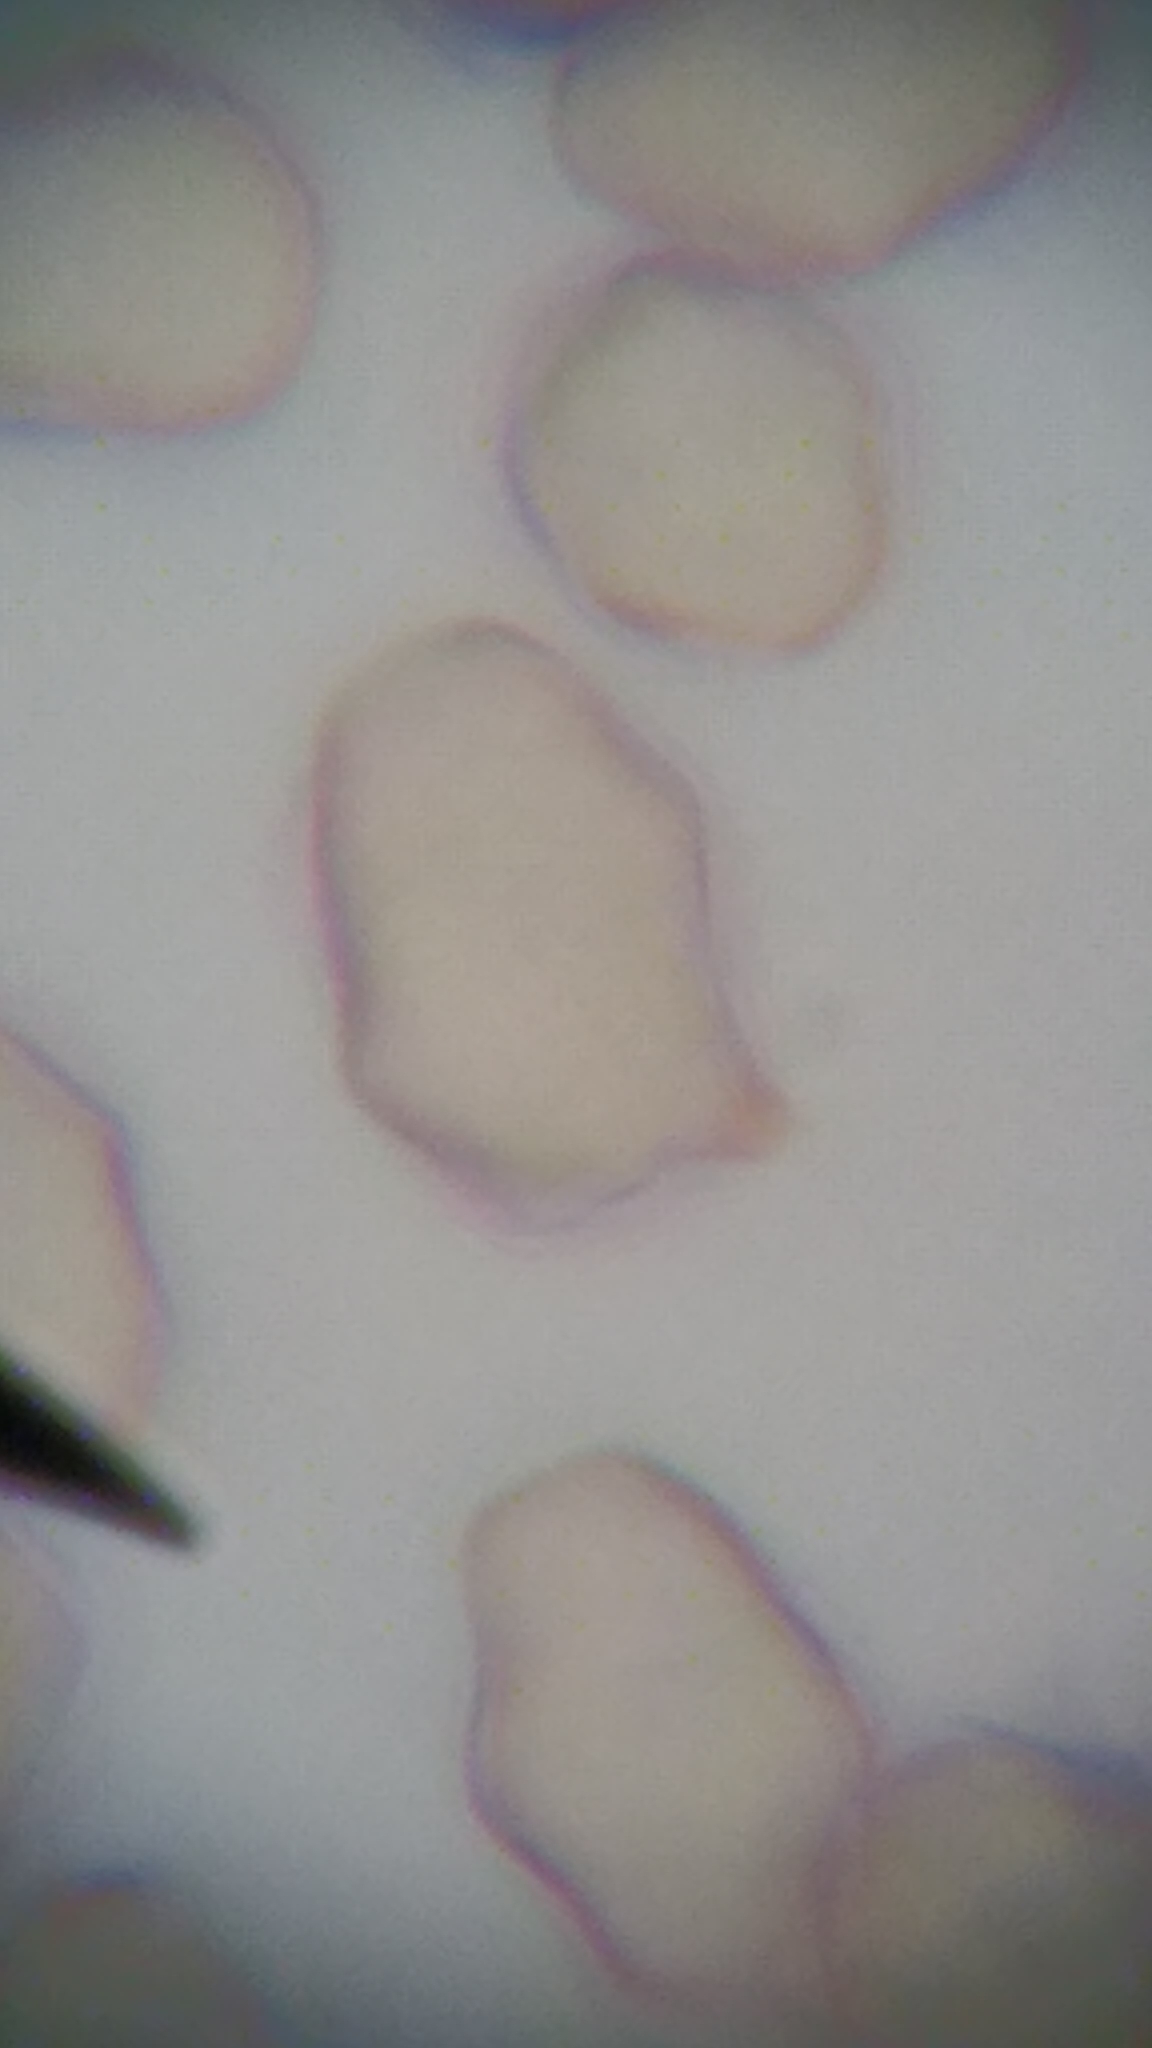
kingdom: Fungi
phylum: Basidiomycota
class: Agaricomycetes
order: Agaricales
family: Entolomataceae
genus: Entoloma
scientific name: Entoloma cetratum
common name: Honey pinkgill
